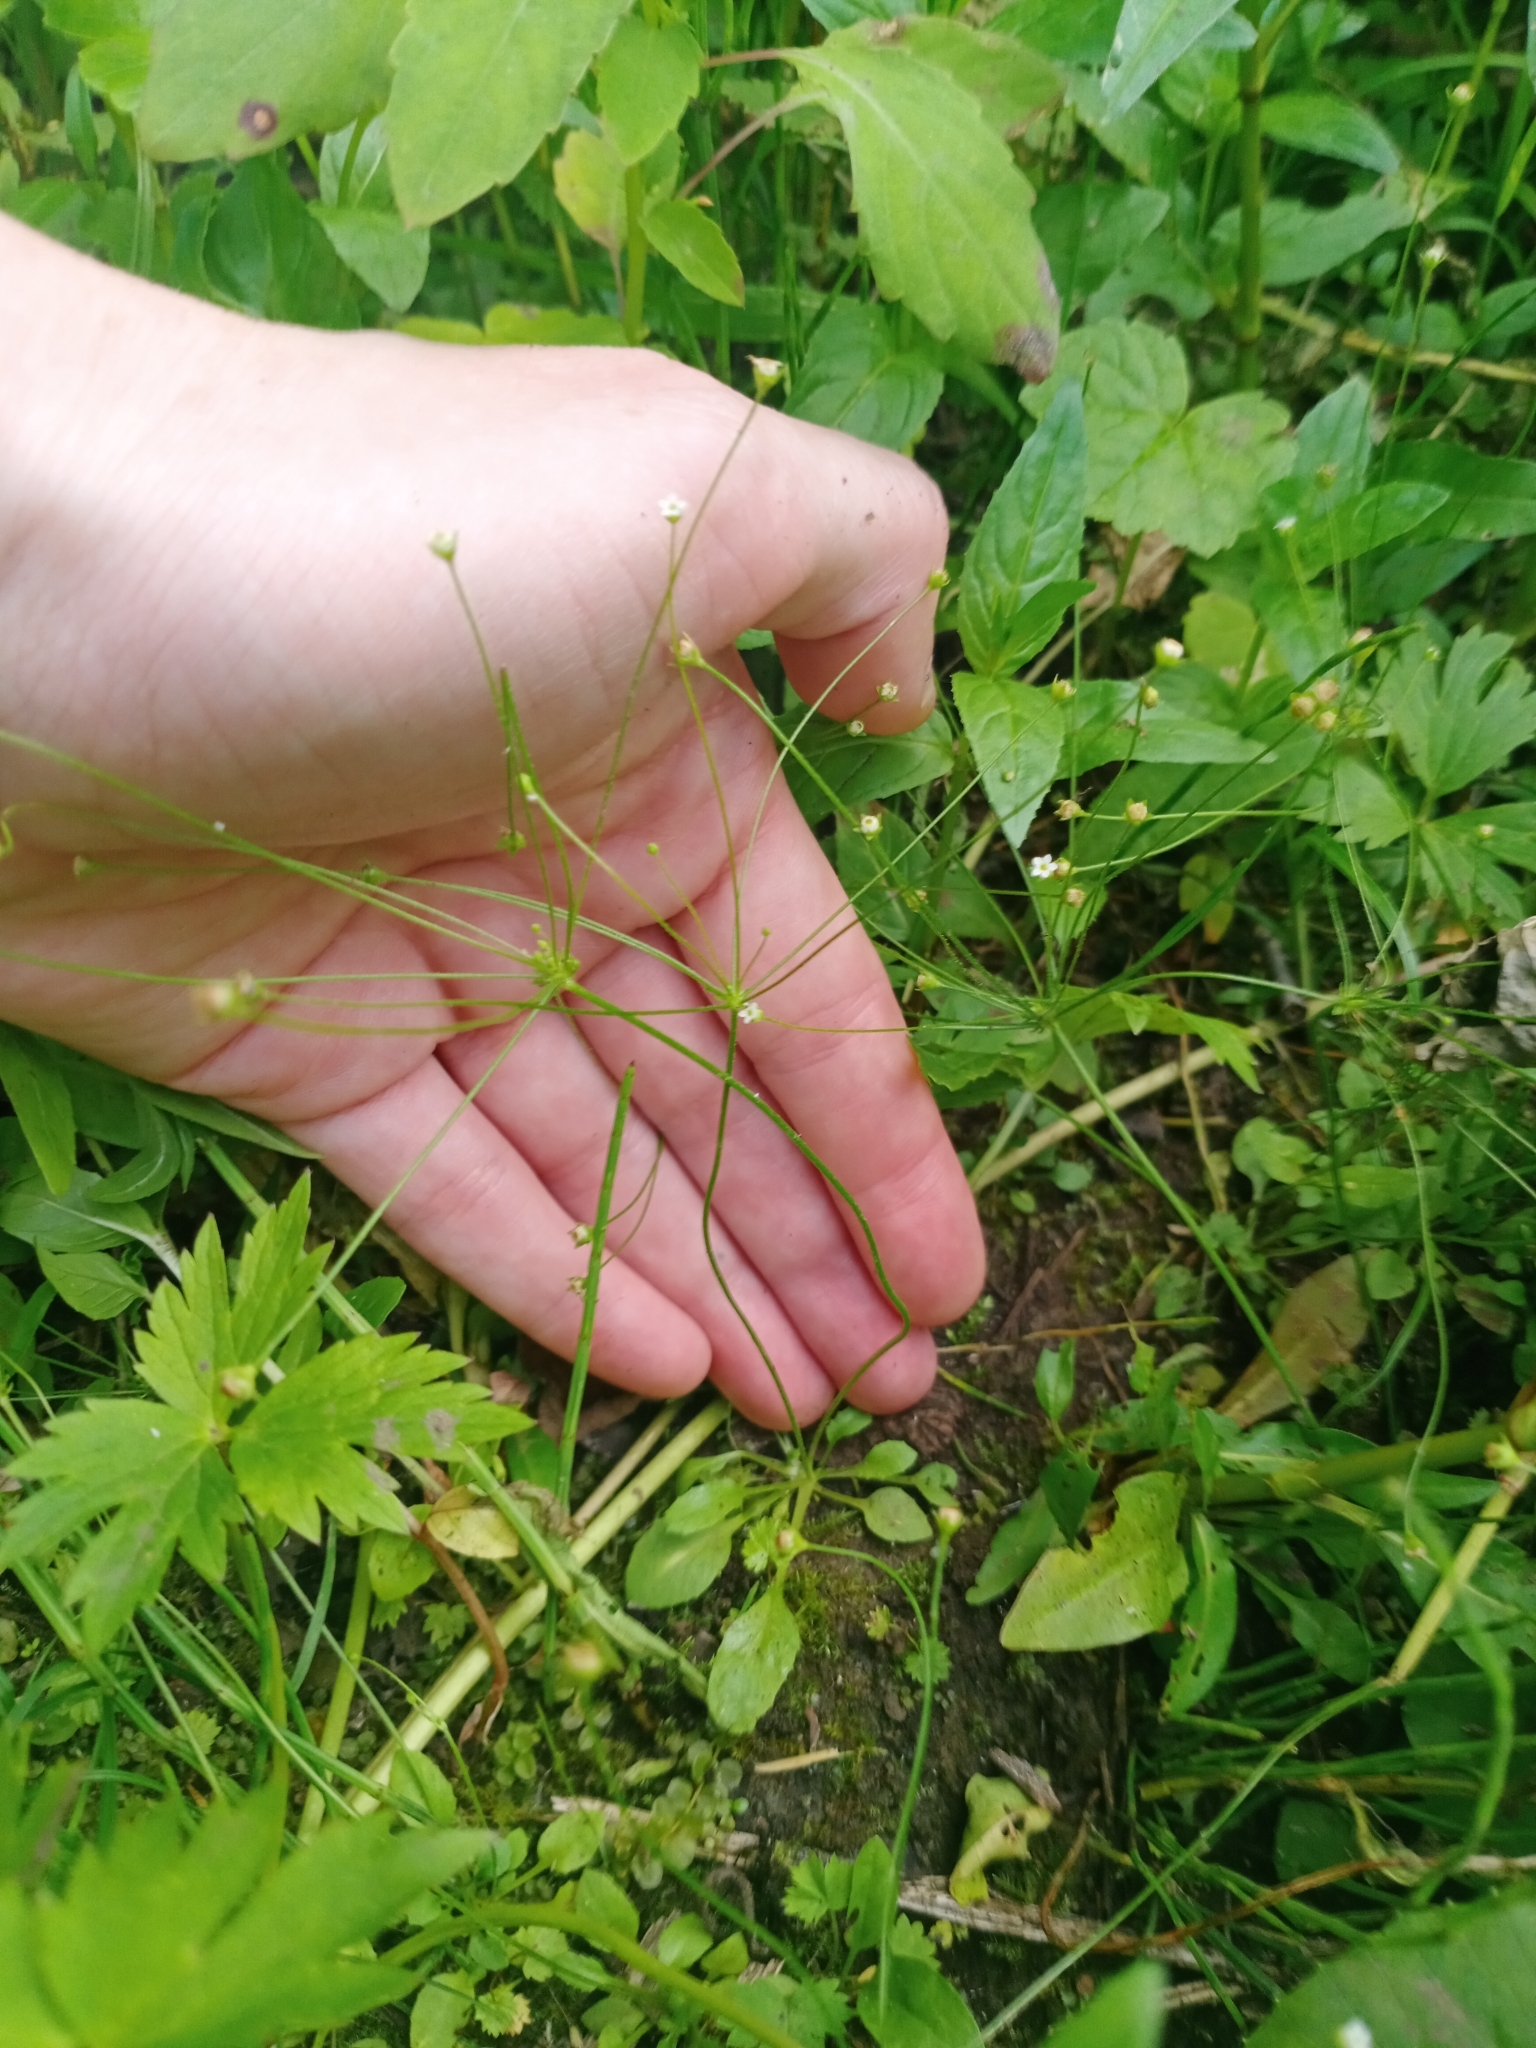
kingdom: Plantae
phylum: Tracheophyta
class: Magnoliopsida
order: Ericales
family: Primulaceae
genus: Androsace
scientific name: Androsace filiformis
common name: Filiform rock jasmine
